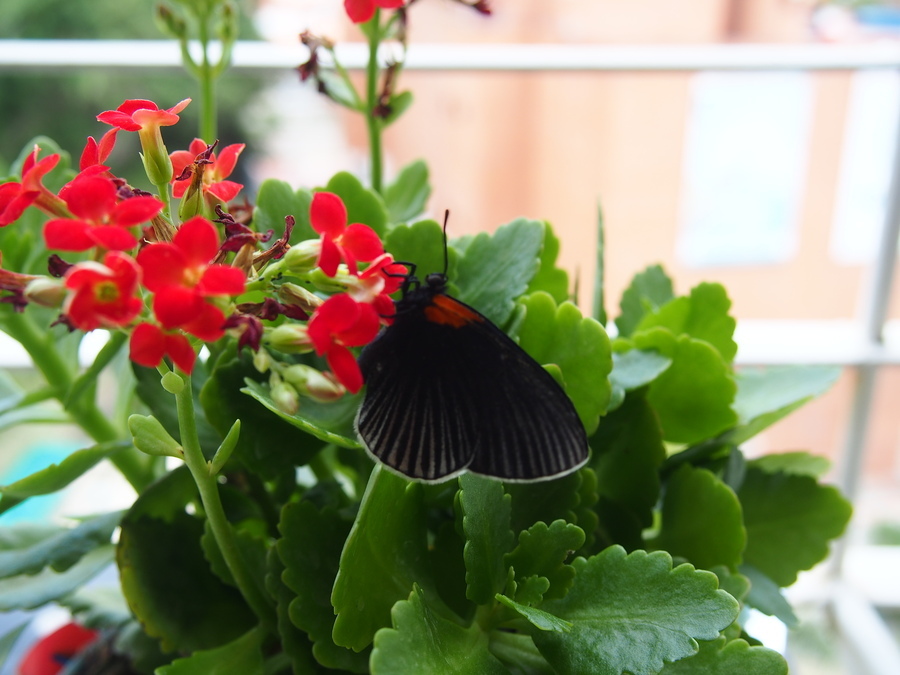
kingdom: Animalia
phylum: Arthropoda
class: Insecta
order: Lepidoptera
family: Riodinidae
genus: Hades
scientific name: Hades noctula
